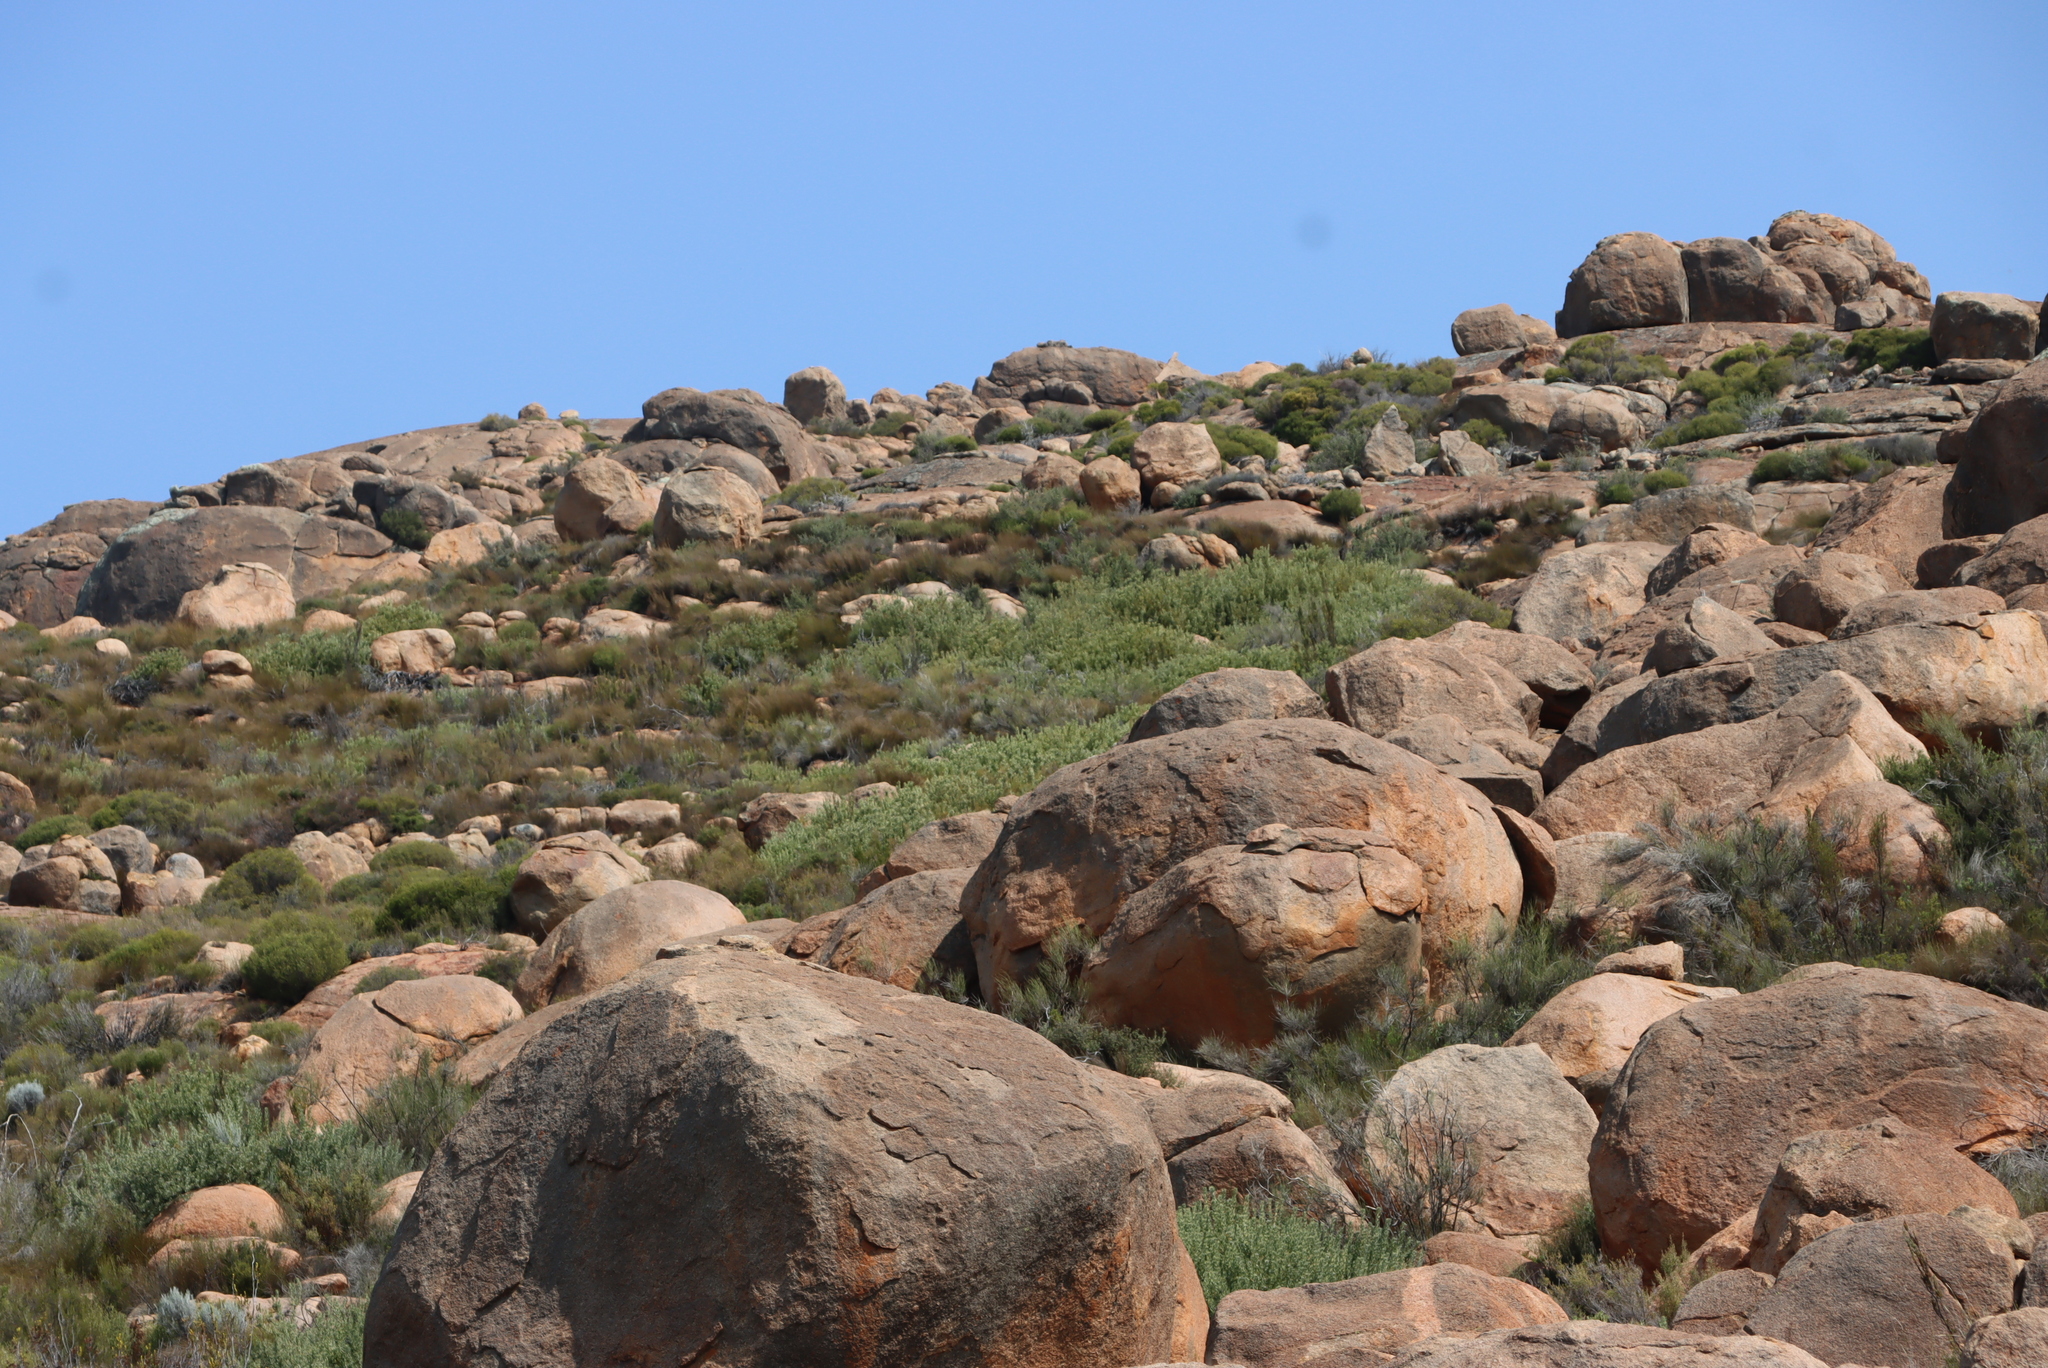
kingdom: Plantae
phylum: Tracheophyta
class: Magnoliopsida
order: Proteales
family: Proteaceae
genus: Vexatorella
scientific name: Vexatorella alpina
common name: Kamiesberg vexator
